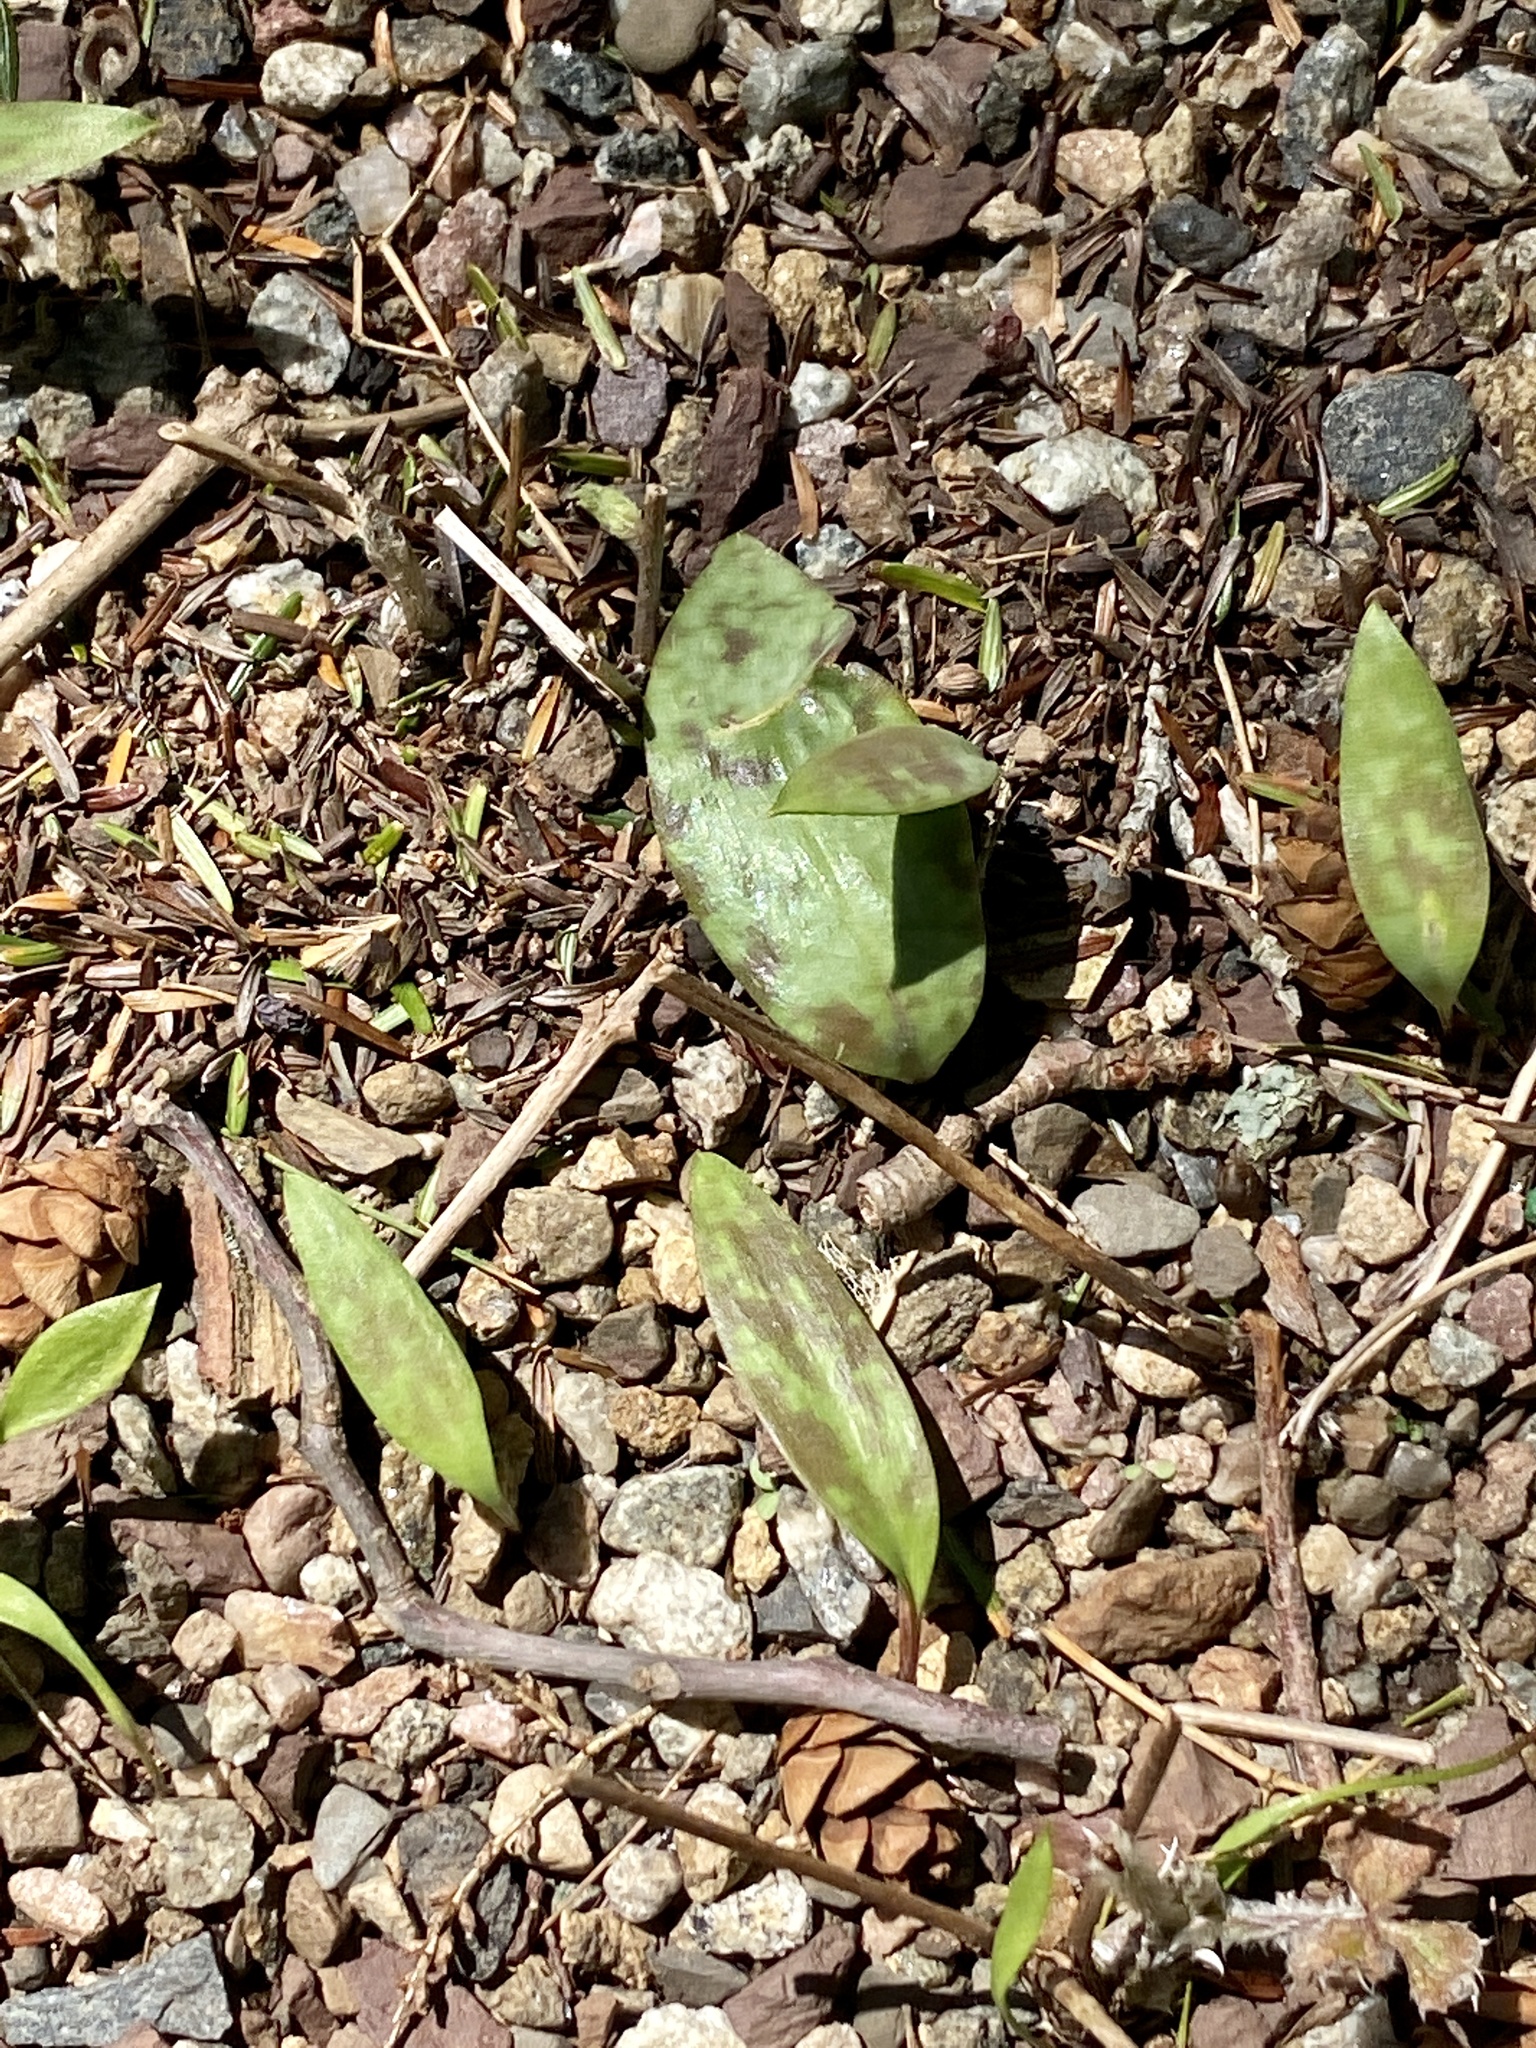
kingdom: Plantae
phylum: Tracheophyta
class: Liliopsida
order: Liliales
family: Liliaceae
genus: Erythronium
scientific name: Erythronium americanum
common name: Yellow adder's-tongue
